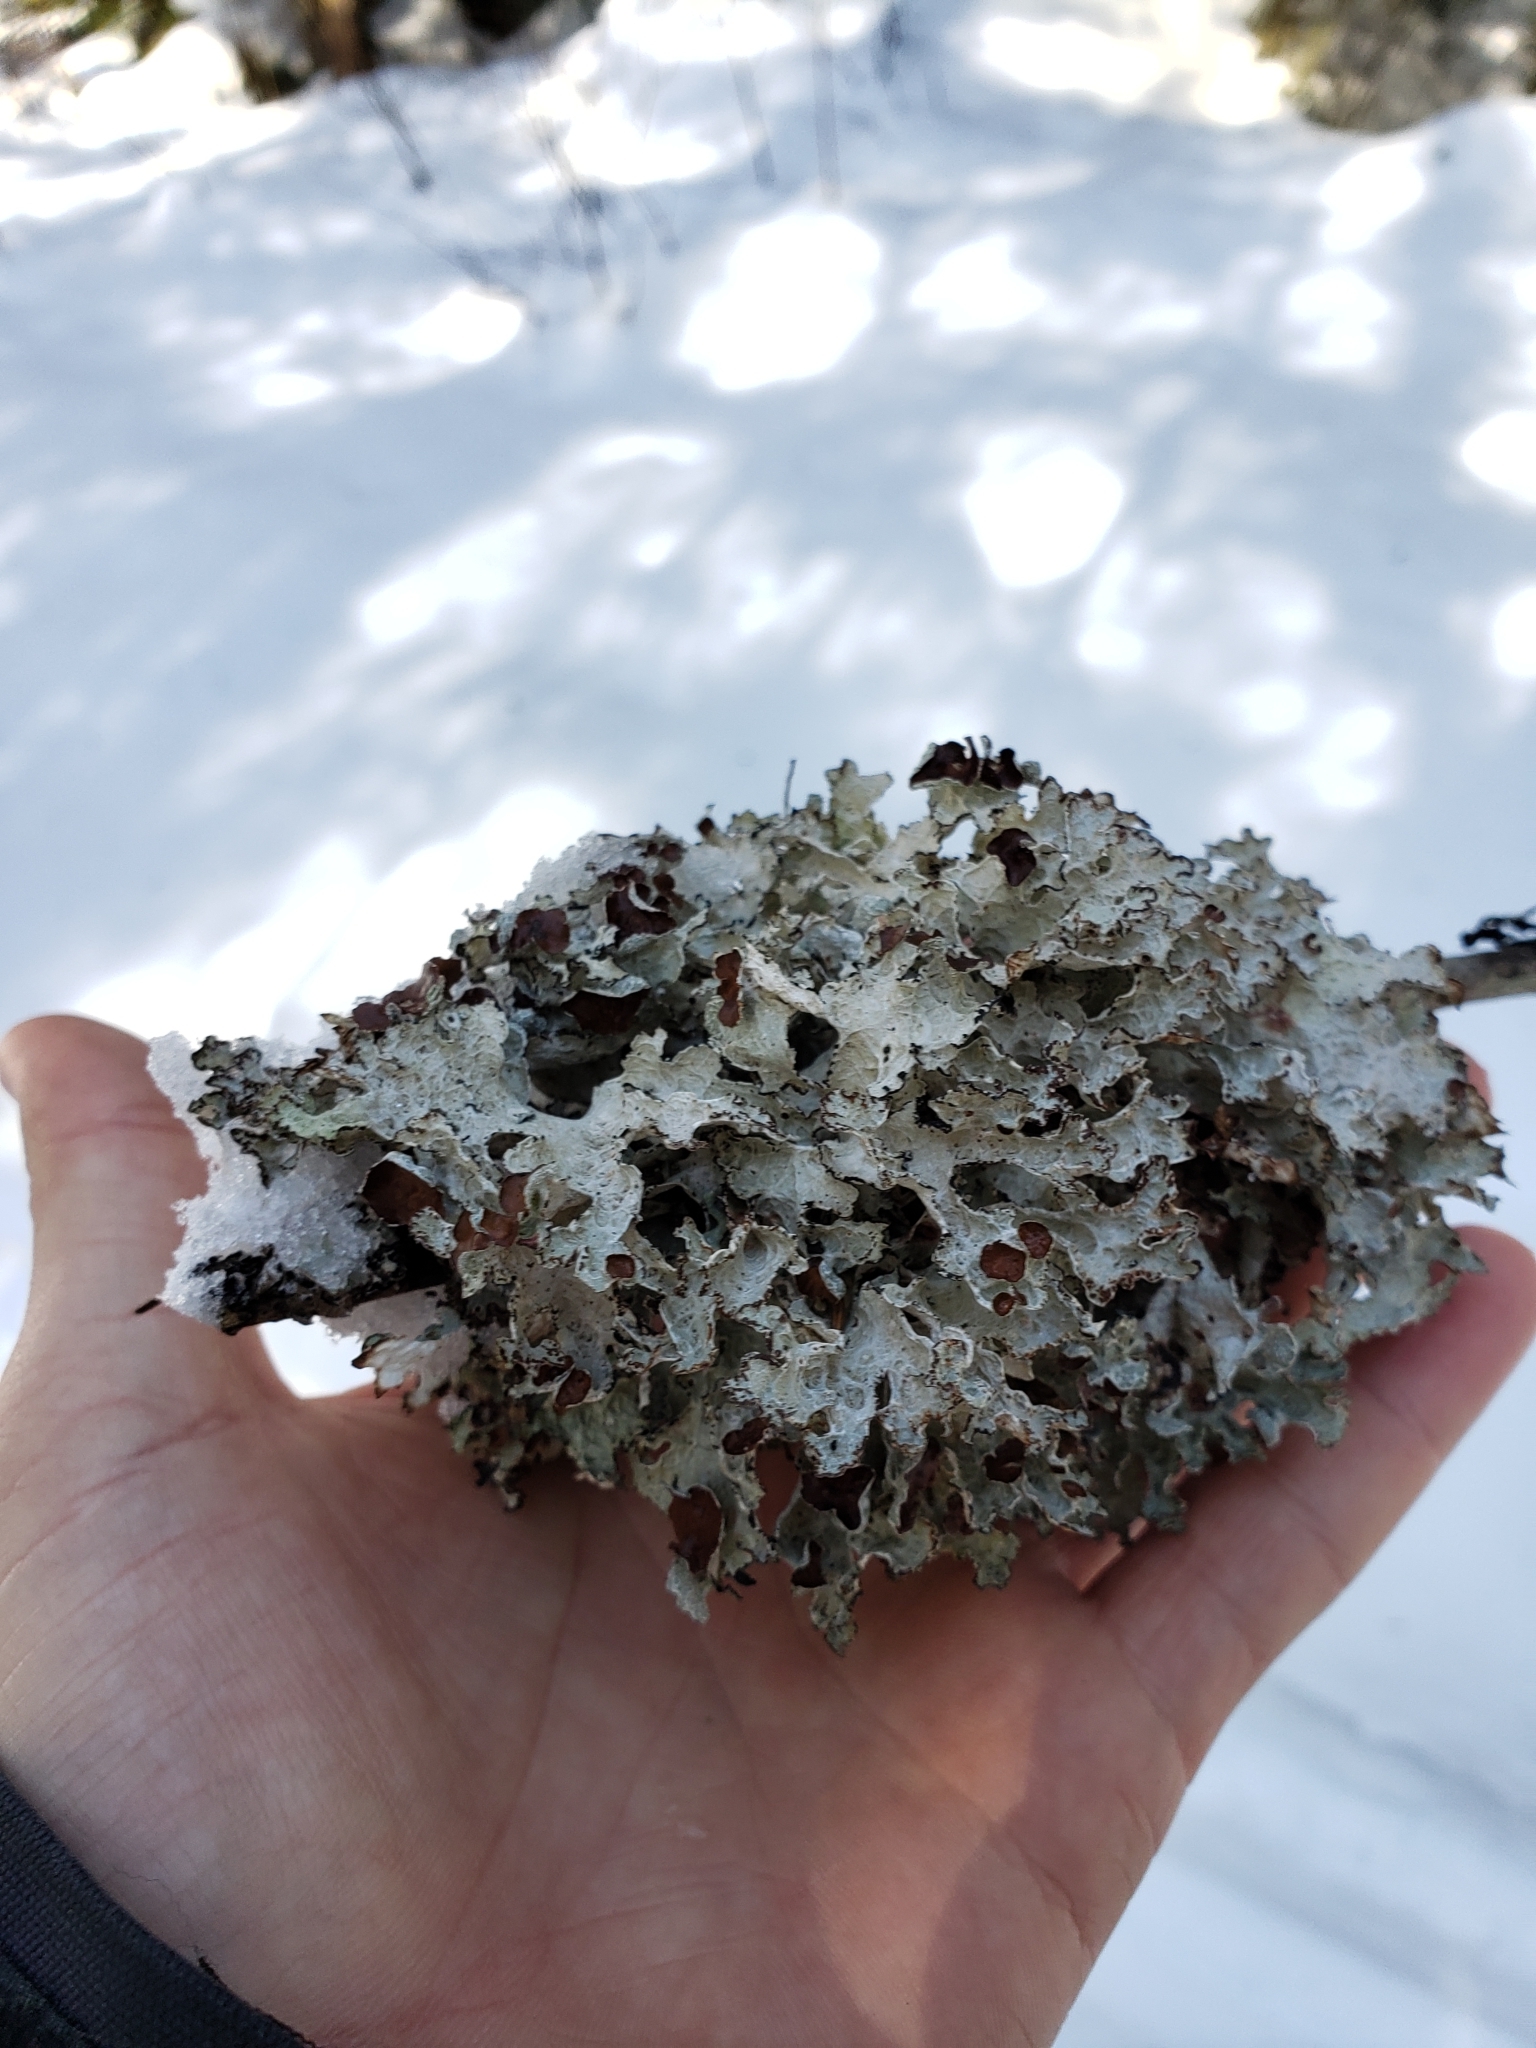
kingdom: Fungi
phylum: Ascomycota
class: Lecanoromycetes
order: Lecanorales
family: Parmeliaceae
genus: Platismatia
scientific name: Platismatia tuckermanii
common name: Crumpled rag lichen
